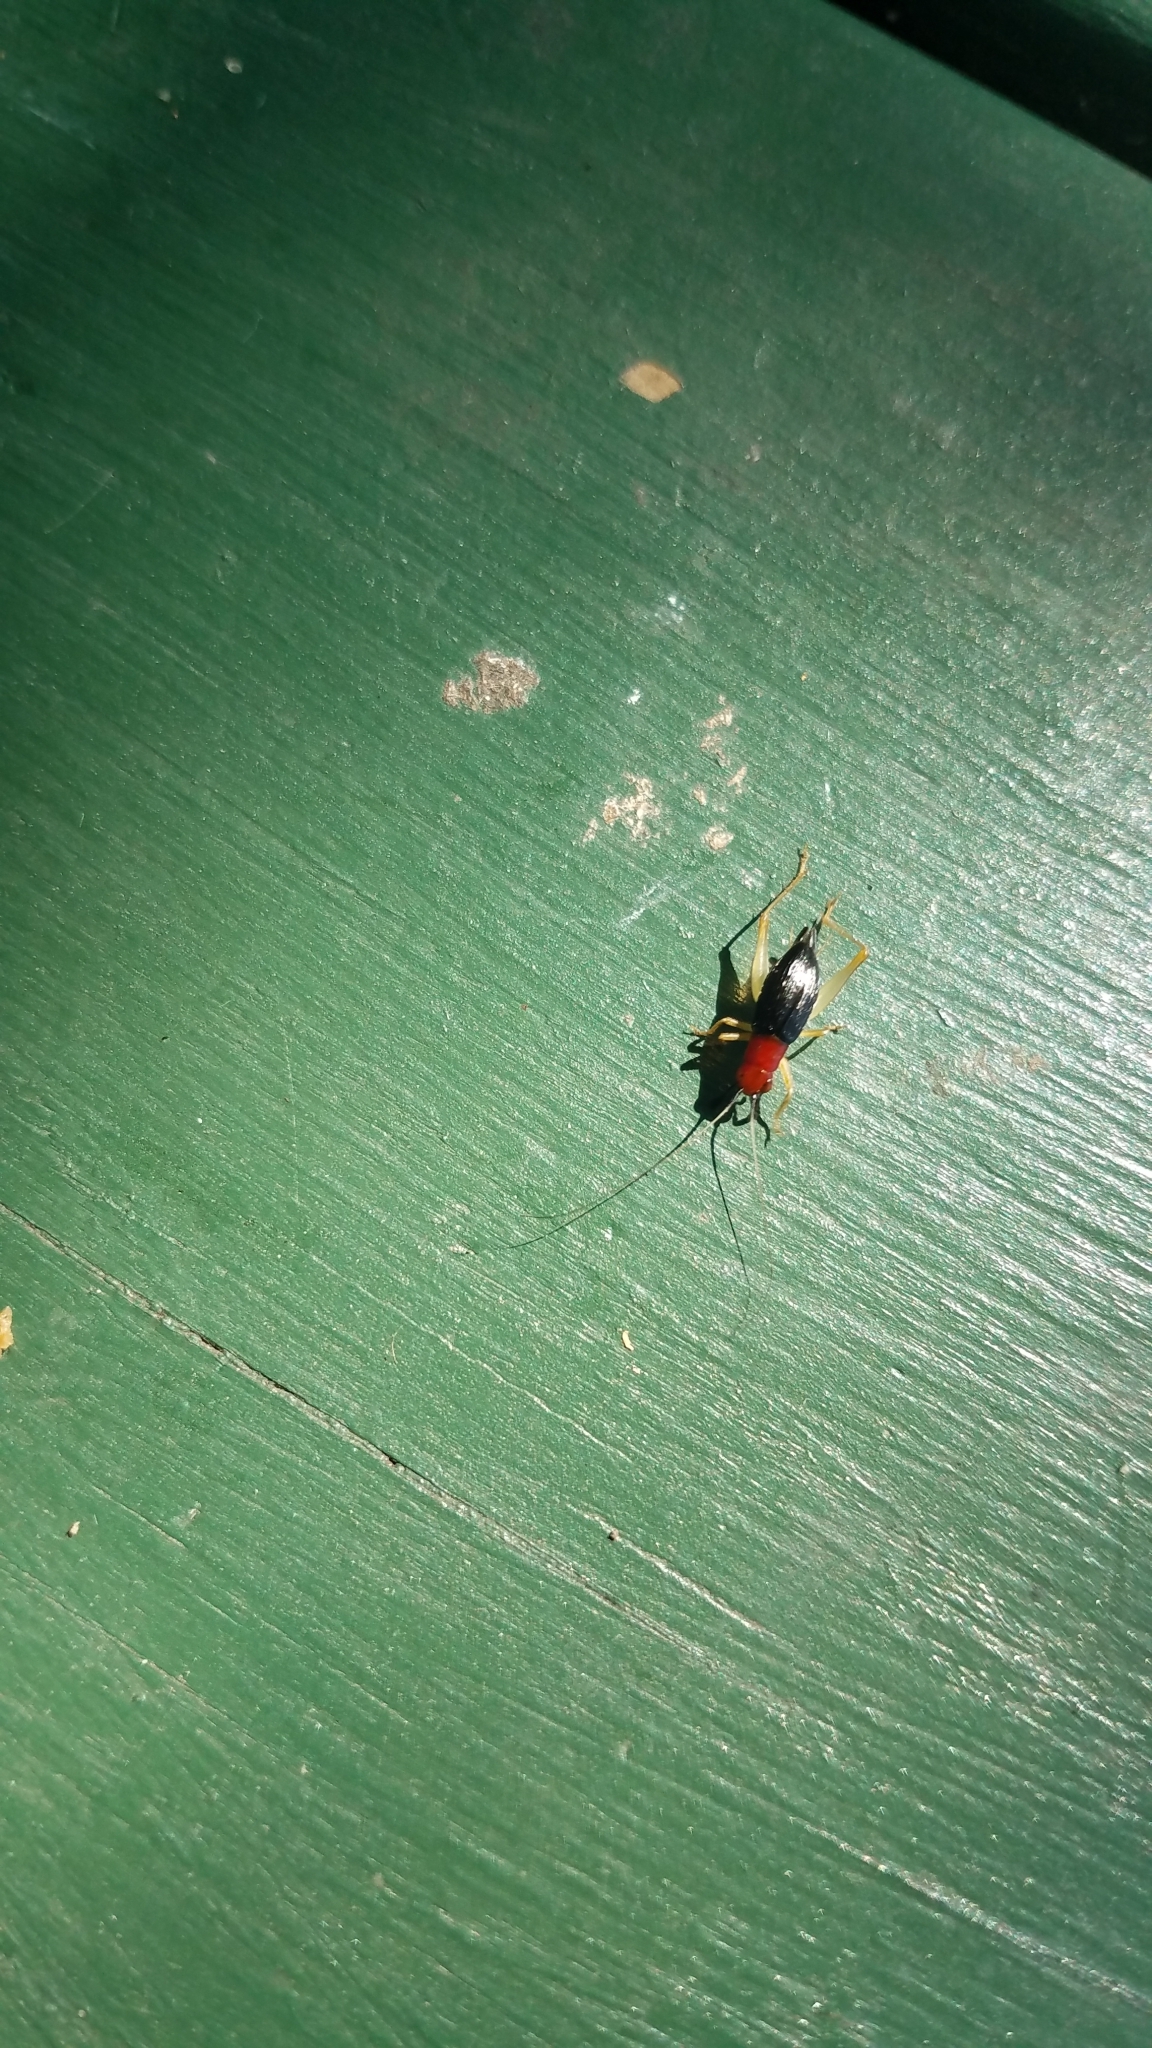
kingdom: Animalia
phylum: Arthropoda
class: Insecta
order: Orthoptera
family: Trigonidiidae
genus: Phyllopalpus
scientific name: Phyllopalpus pulchellus
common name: Handsome trig
